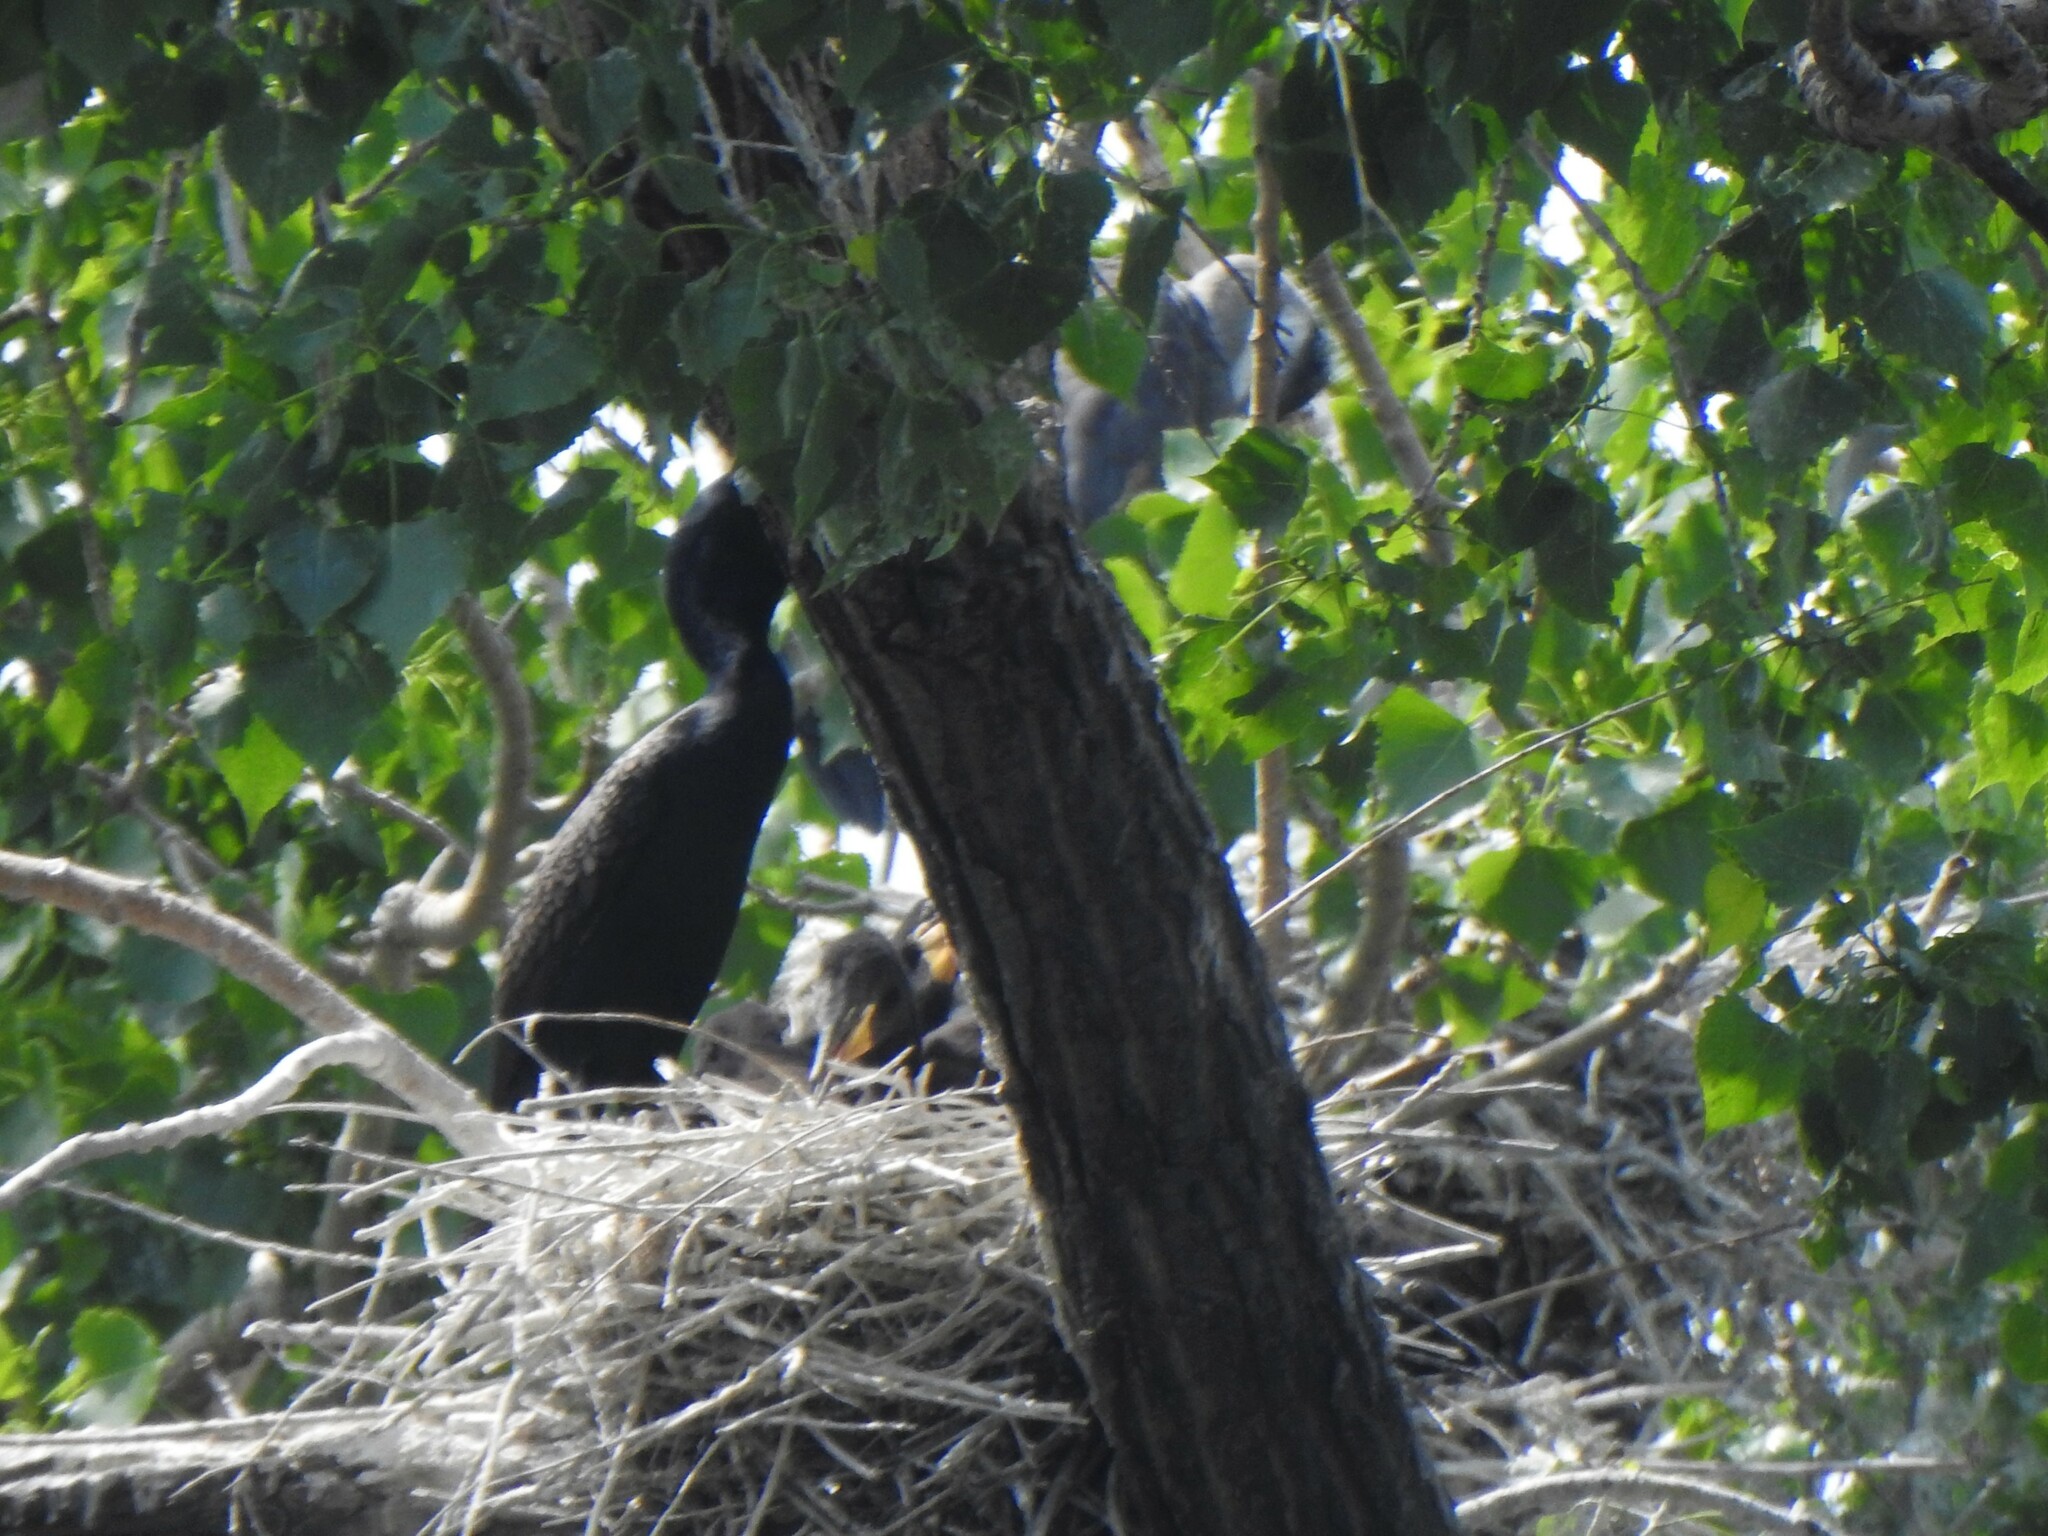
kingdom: Animalia
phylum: Chordata
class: Aves
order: Suliformes
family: Phalacrocoracidae
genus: Phalacrocorax
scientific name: Phalacrocorax auritus
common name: Double-crested cormorant
